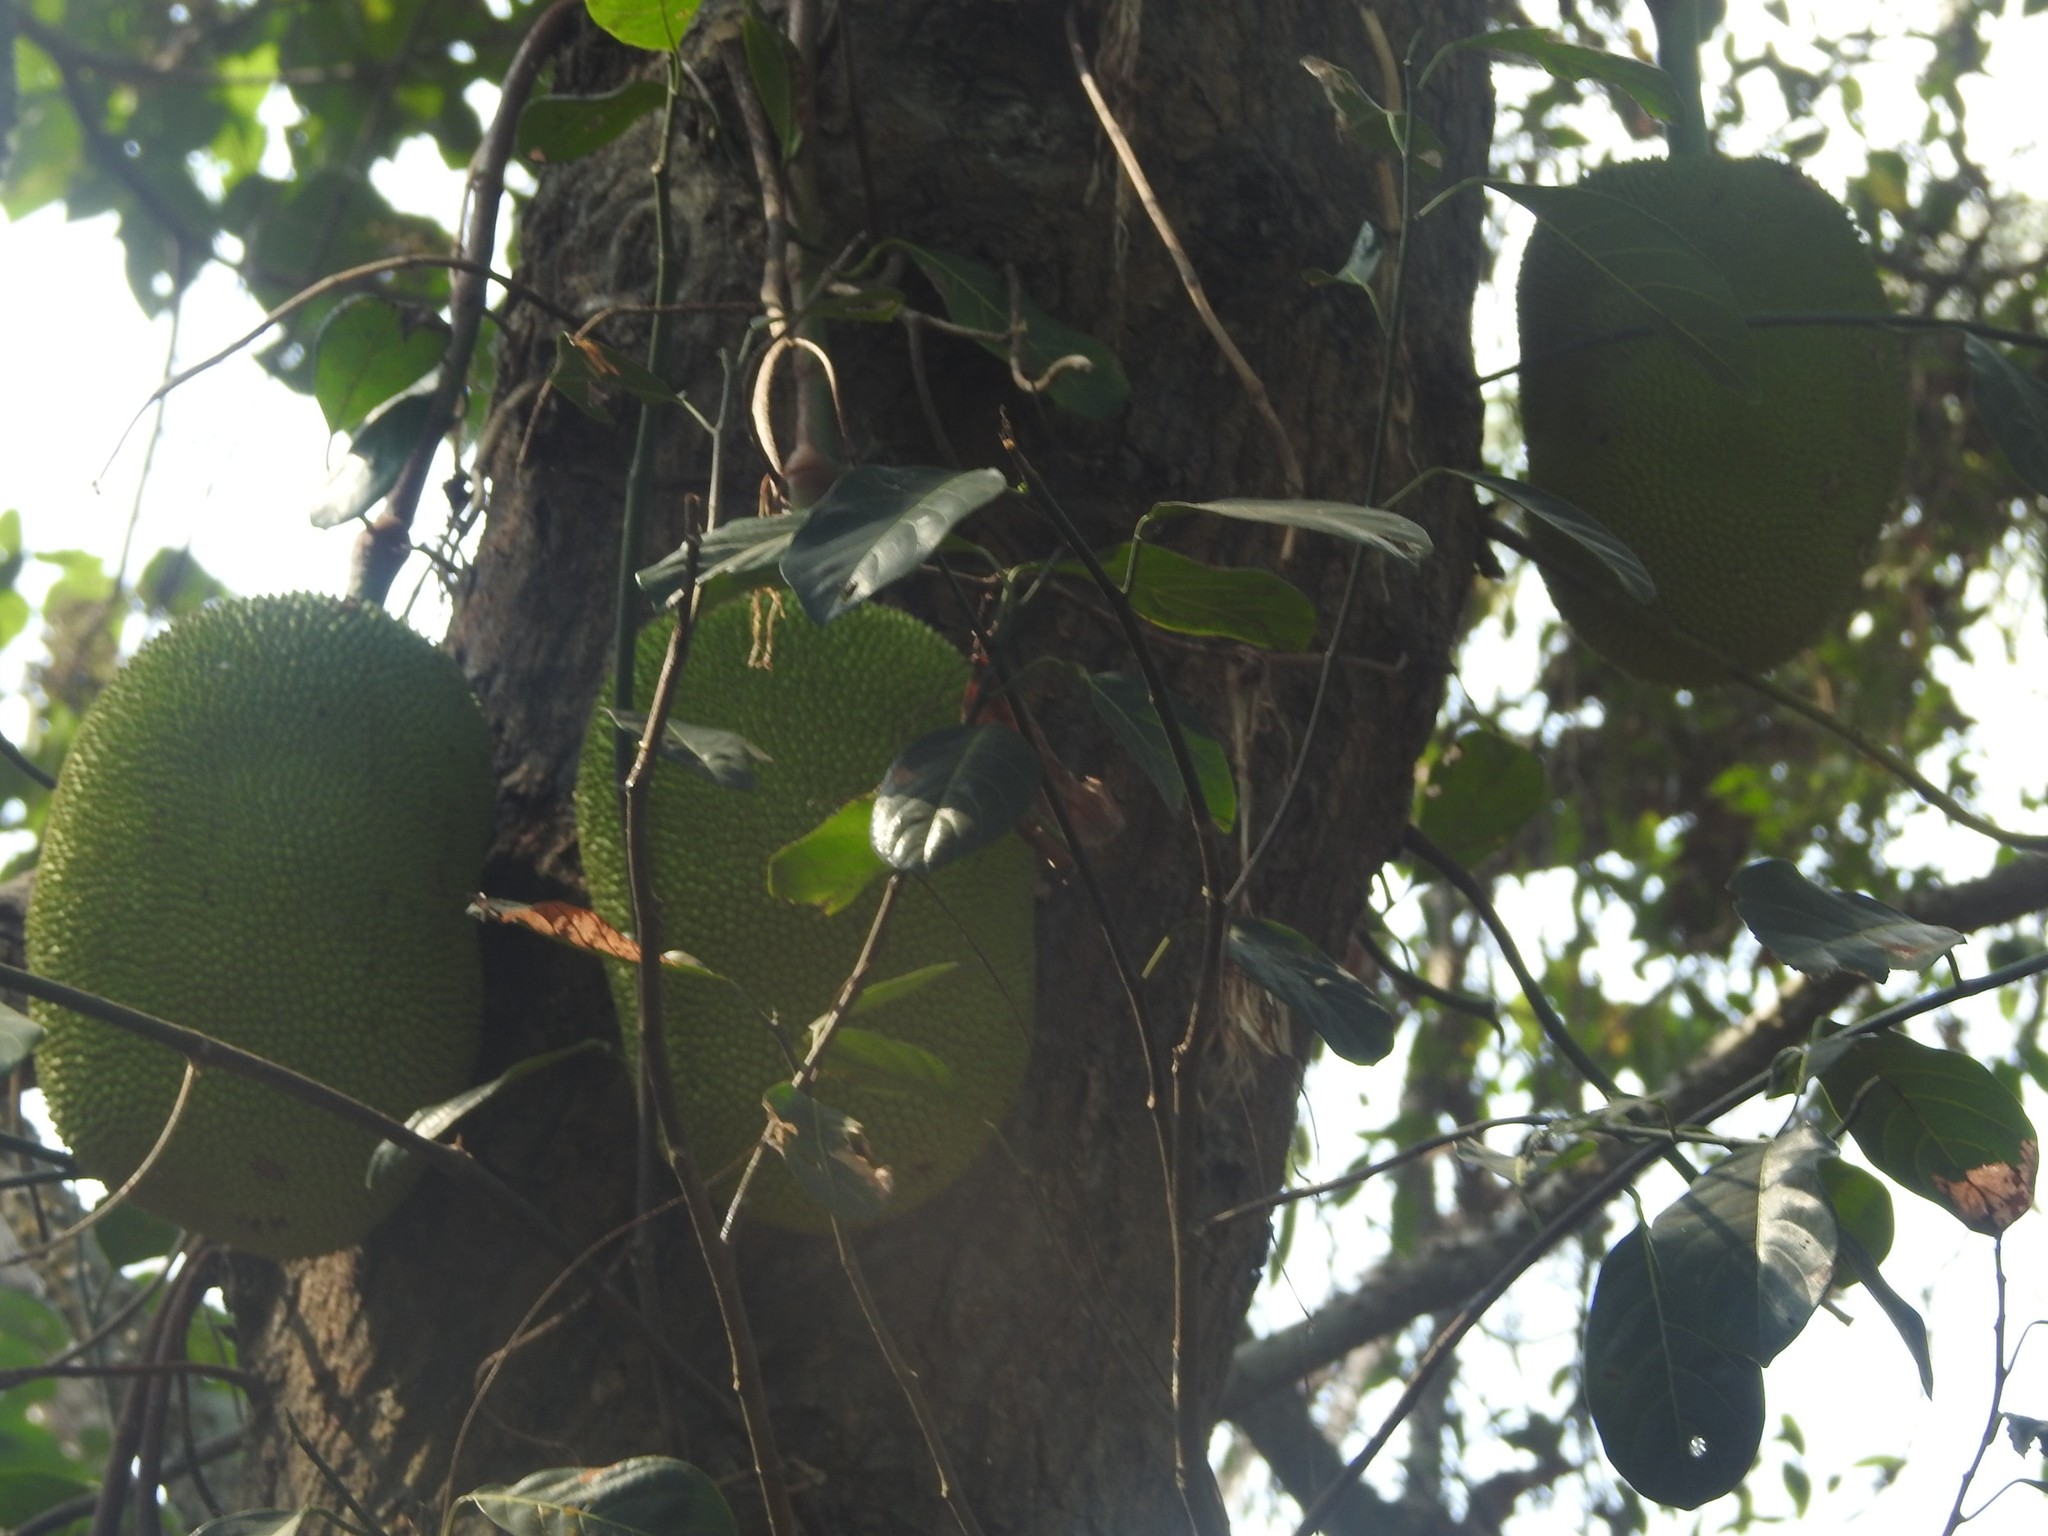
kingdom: Plantae
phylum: Tracheophyta
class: Magnoliopsida
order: Rosales
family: Moraceae
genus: Artocarpus
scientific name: Artocarpus heterophyllus
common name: Jackfruit
